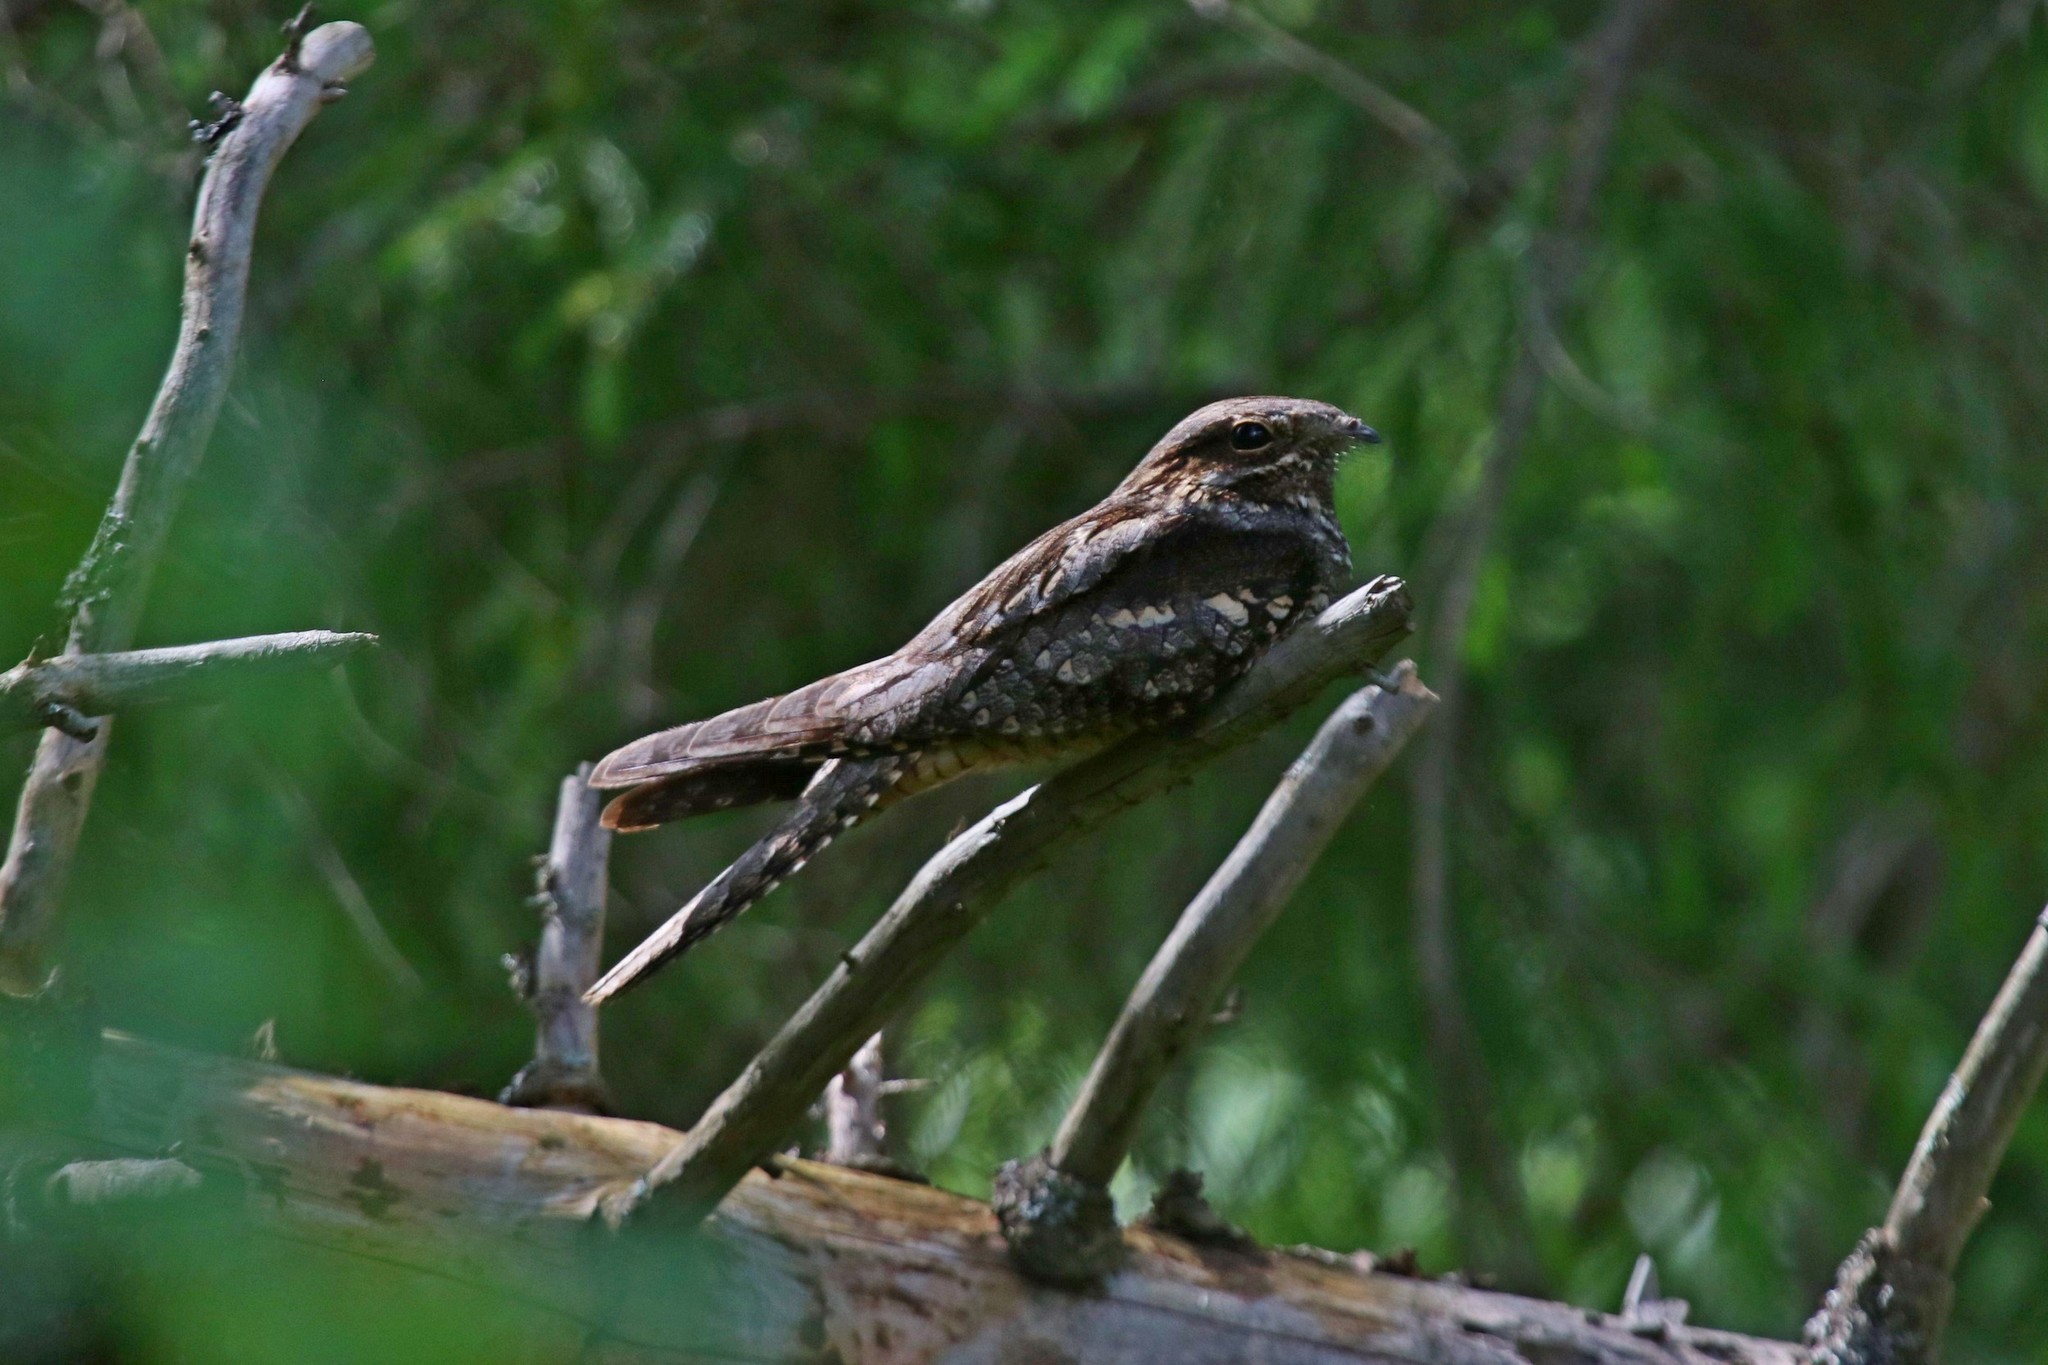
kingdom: Animalia
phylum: Chordata
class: Aves
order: Caprimulgiformes
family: Caprimulgidae
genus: Caprimulgus
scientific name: Caprimulgus europaeus
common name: European nightjar
